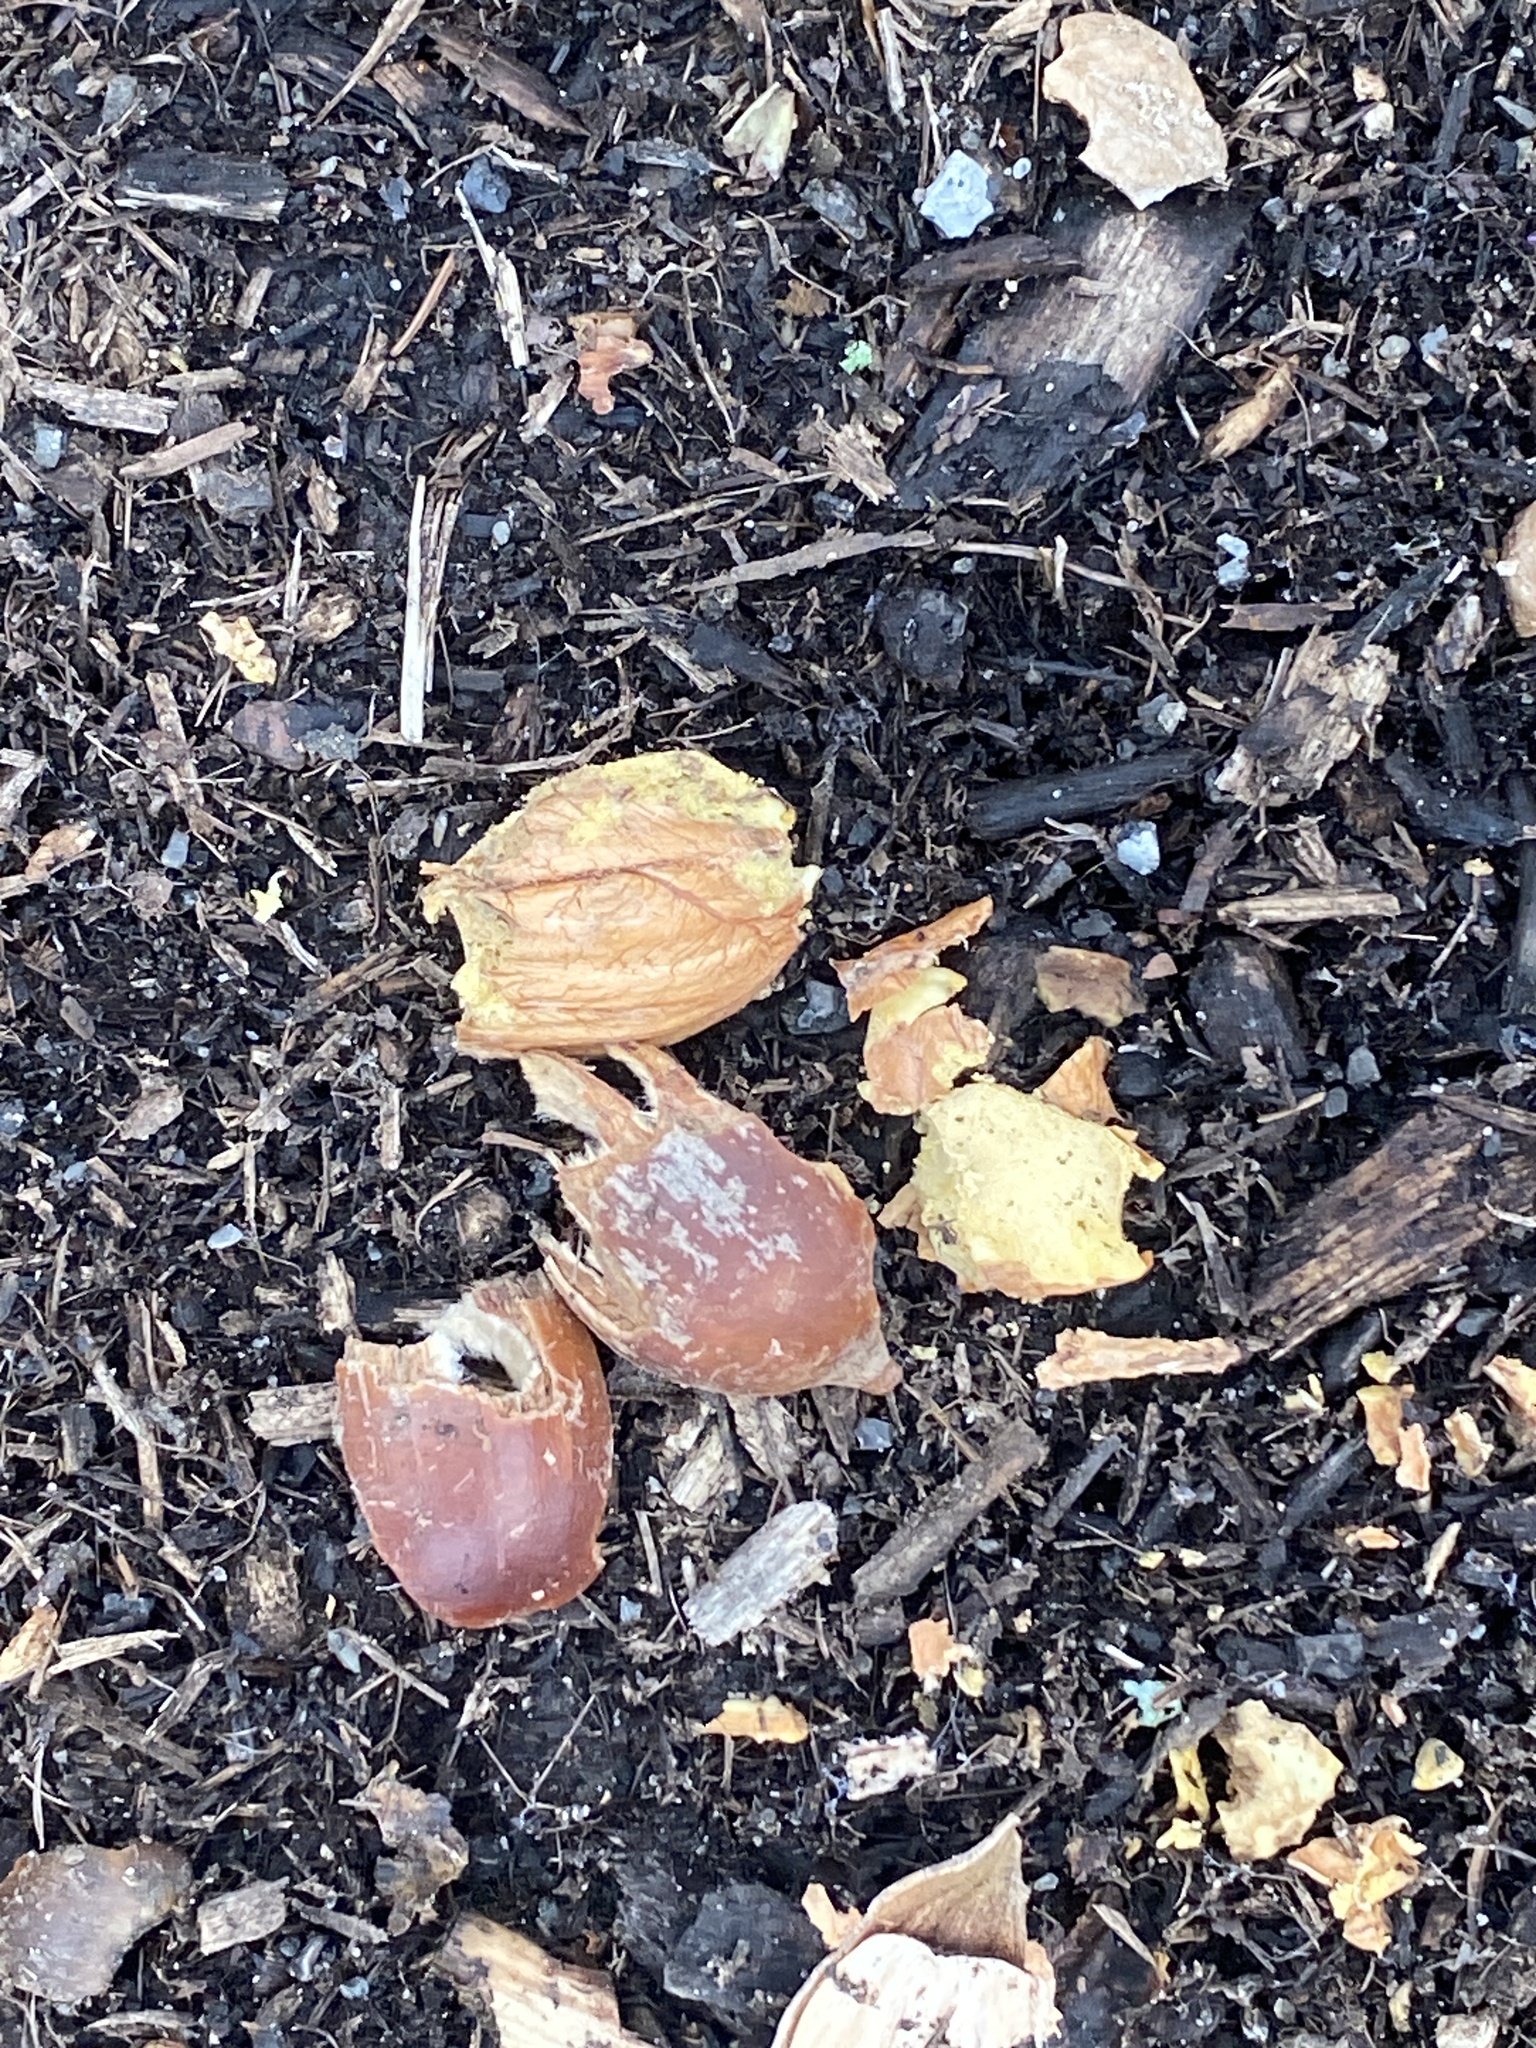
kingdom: Plantae
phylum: Tracheophyta
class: Magnoliopsida
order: Fagales
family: Fagaceae
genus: Quercus
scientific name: Quercus rubra
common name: Red oak
